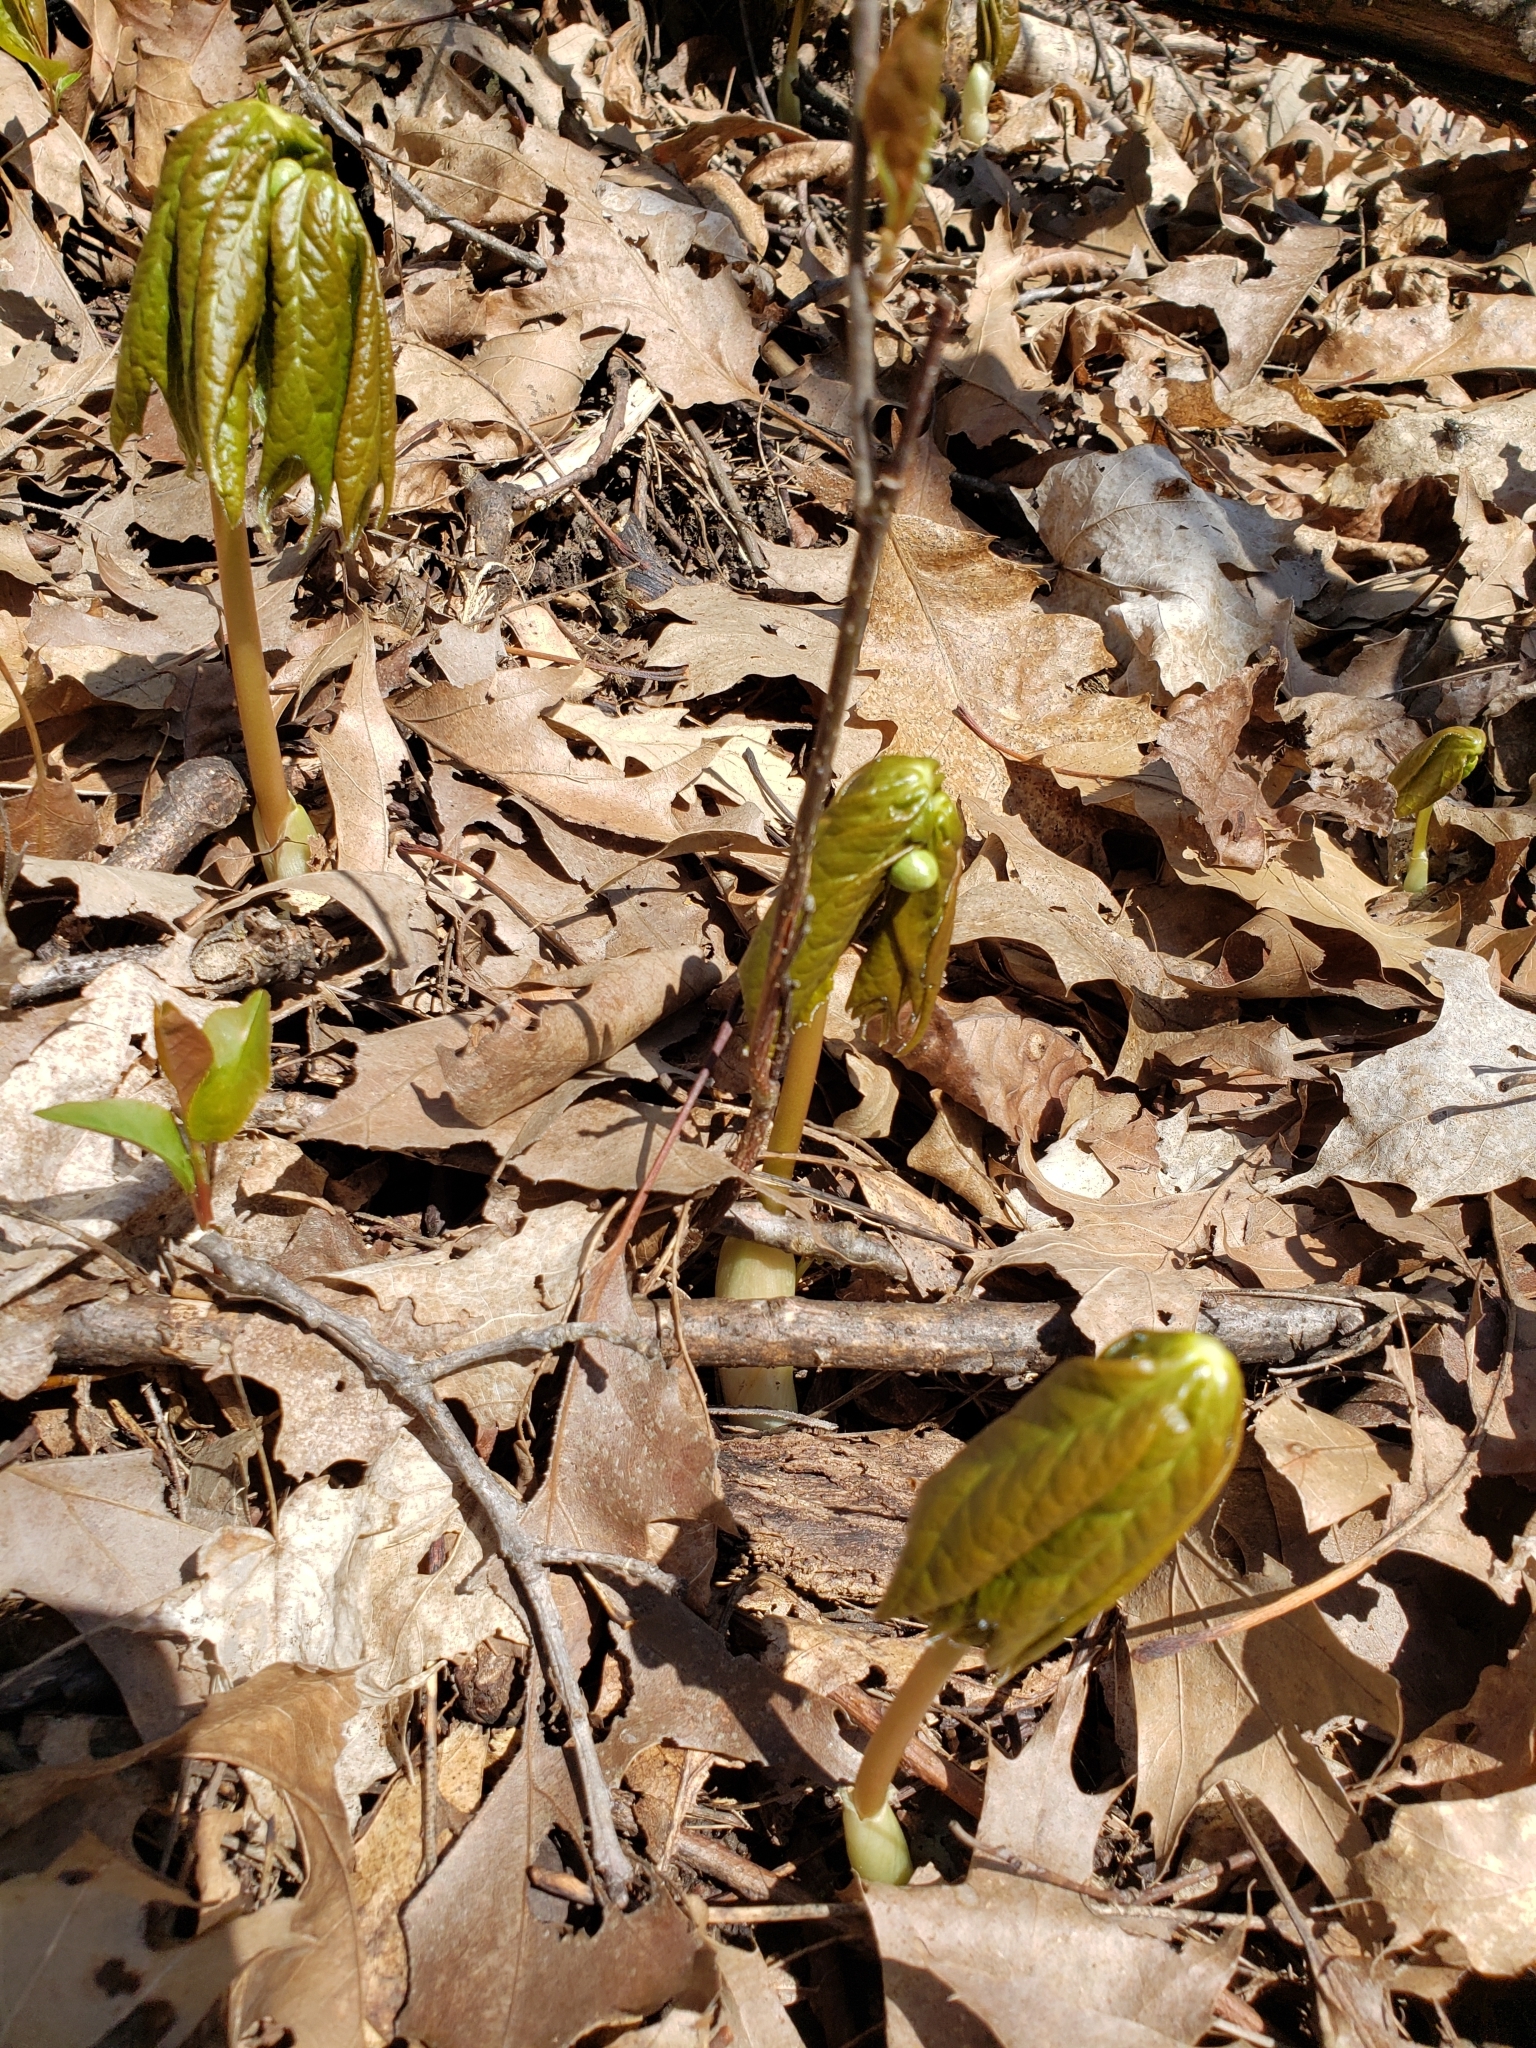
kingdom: Plantae
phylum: Tracheophyta
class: Magnoliopsida
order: Ranunculales
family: Berberidaceae
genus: Podophyllum
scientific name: Podophyllum peltatum
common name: Wild mandrake
